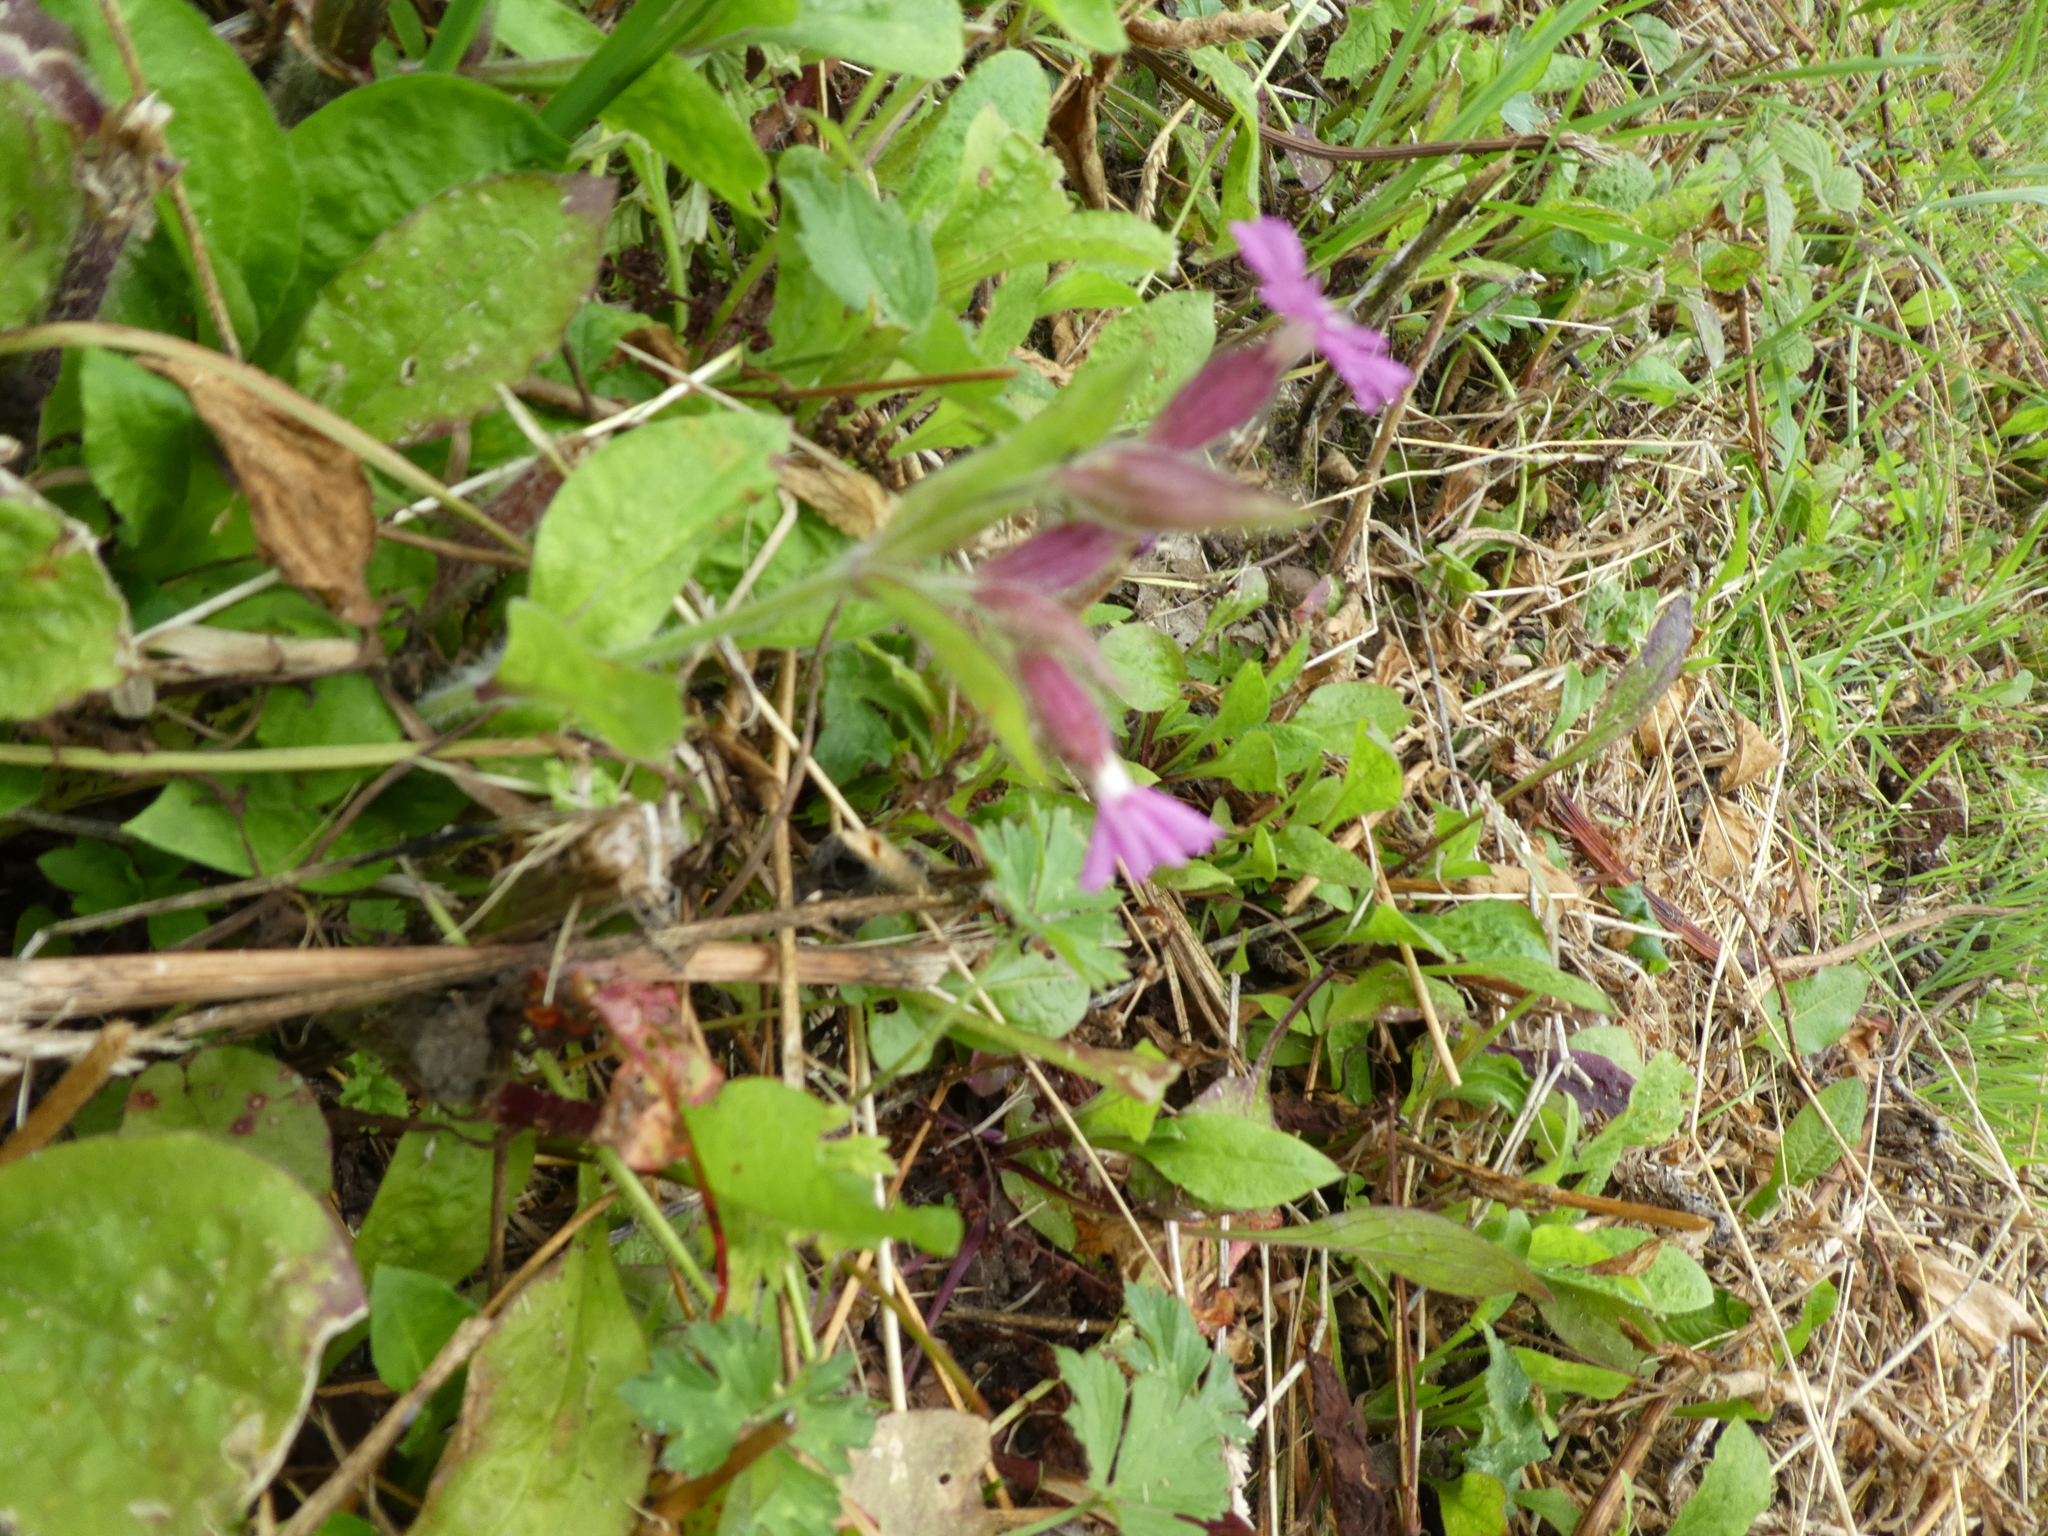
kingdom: Plantae
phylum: Tracheophyta
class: Magnoliopsida
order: Caryophyllales
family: Caryophyllaceae
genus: Silene
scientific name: Silene dioica
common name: Red campion
